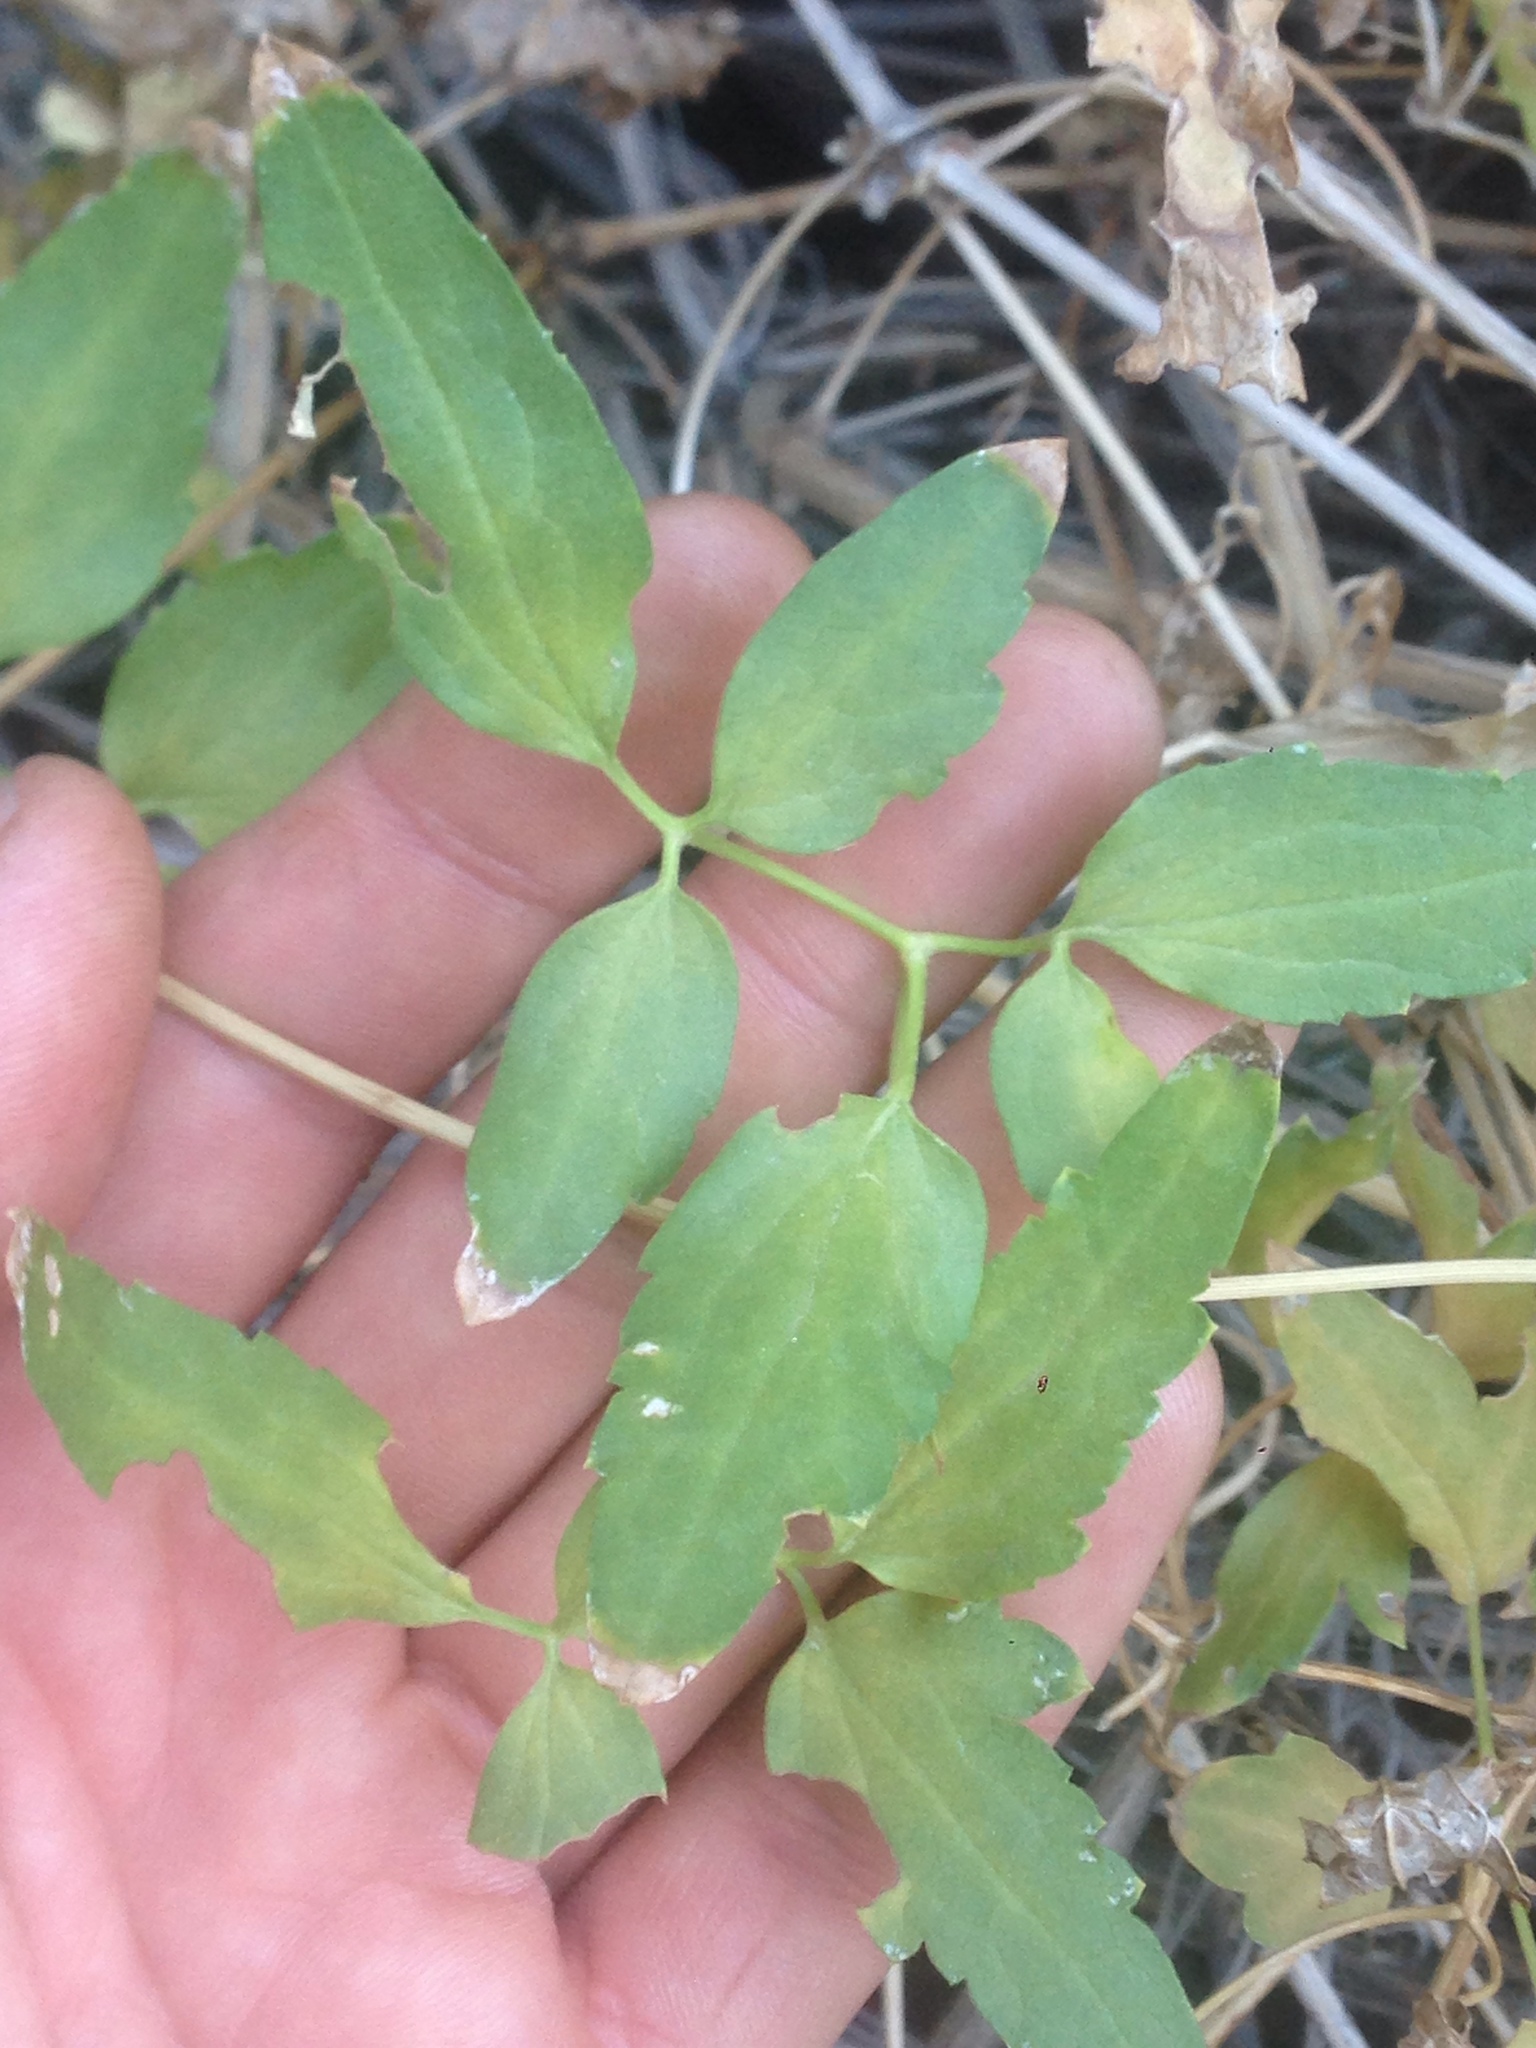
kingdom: Plantae
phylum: Tracheophyta
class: Magnoliopsida
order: Ranunculales
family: Ranunculaceae
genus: Clematis
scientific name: Clematis ligusticifolia
